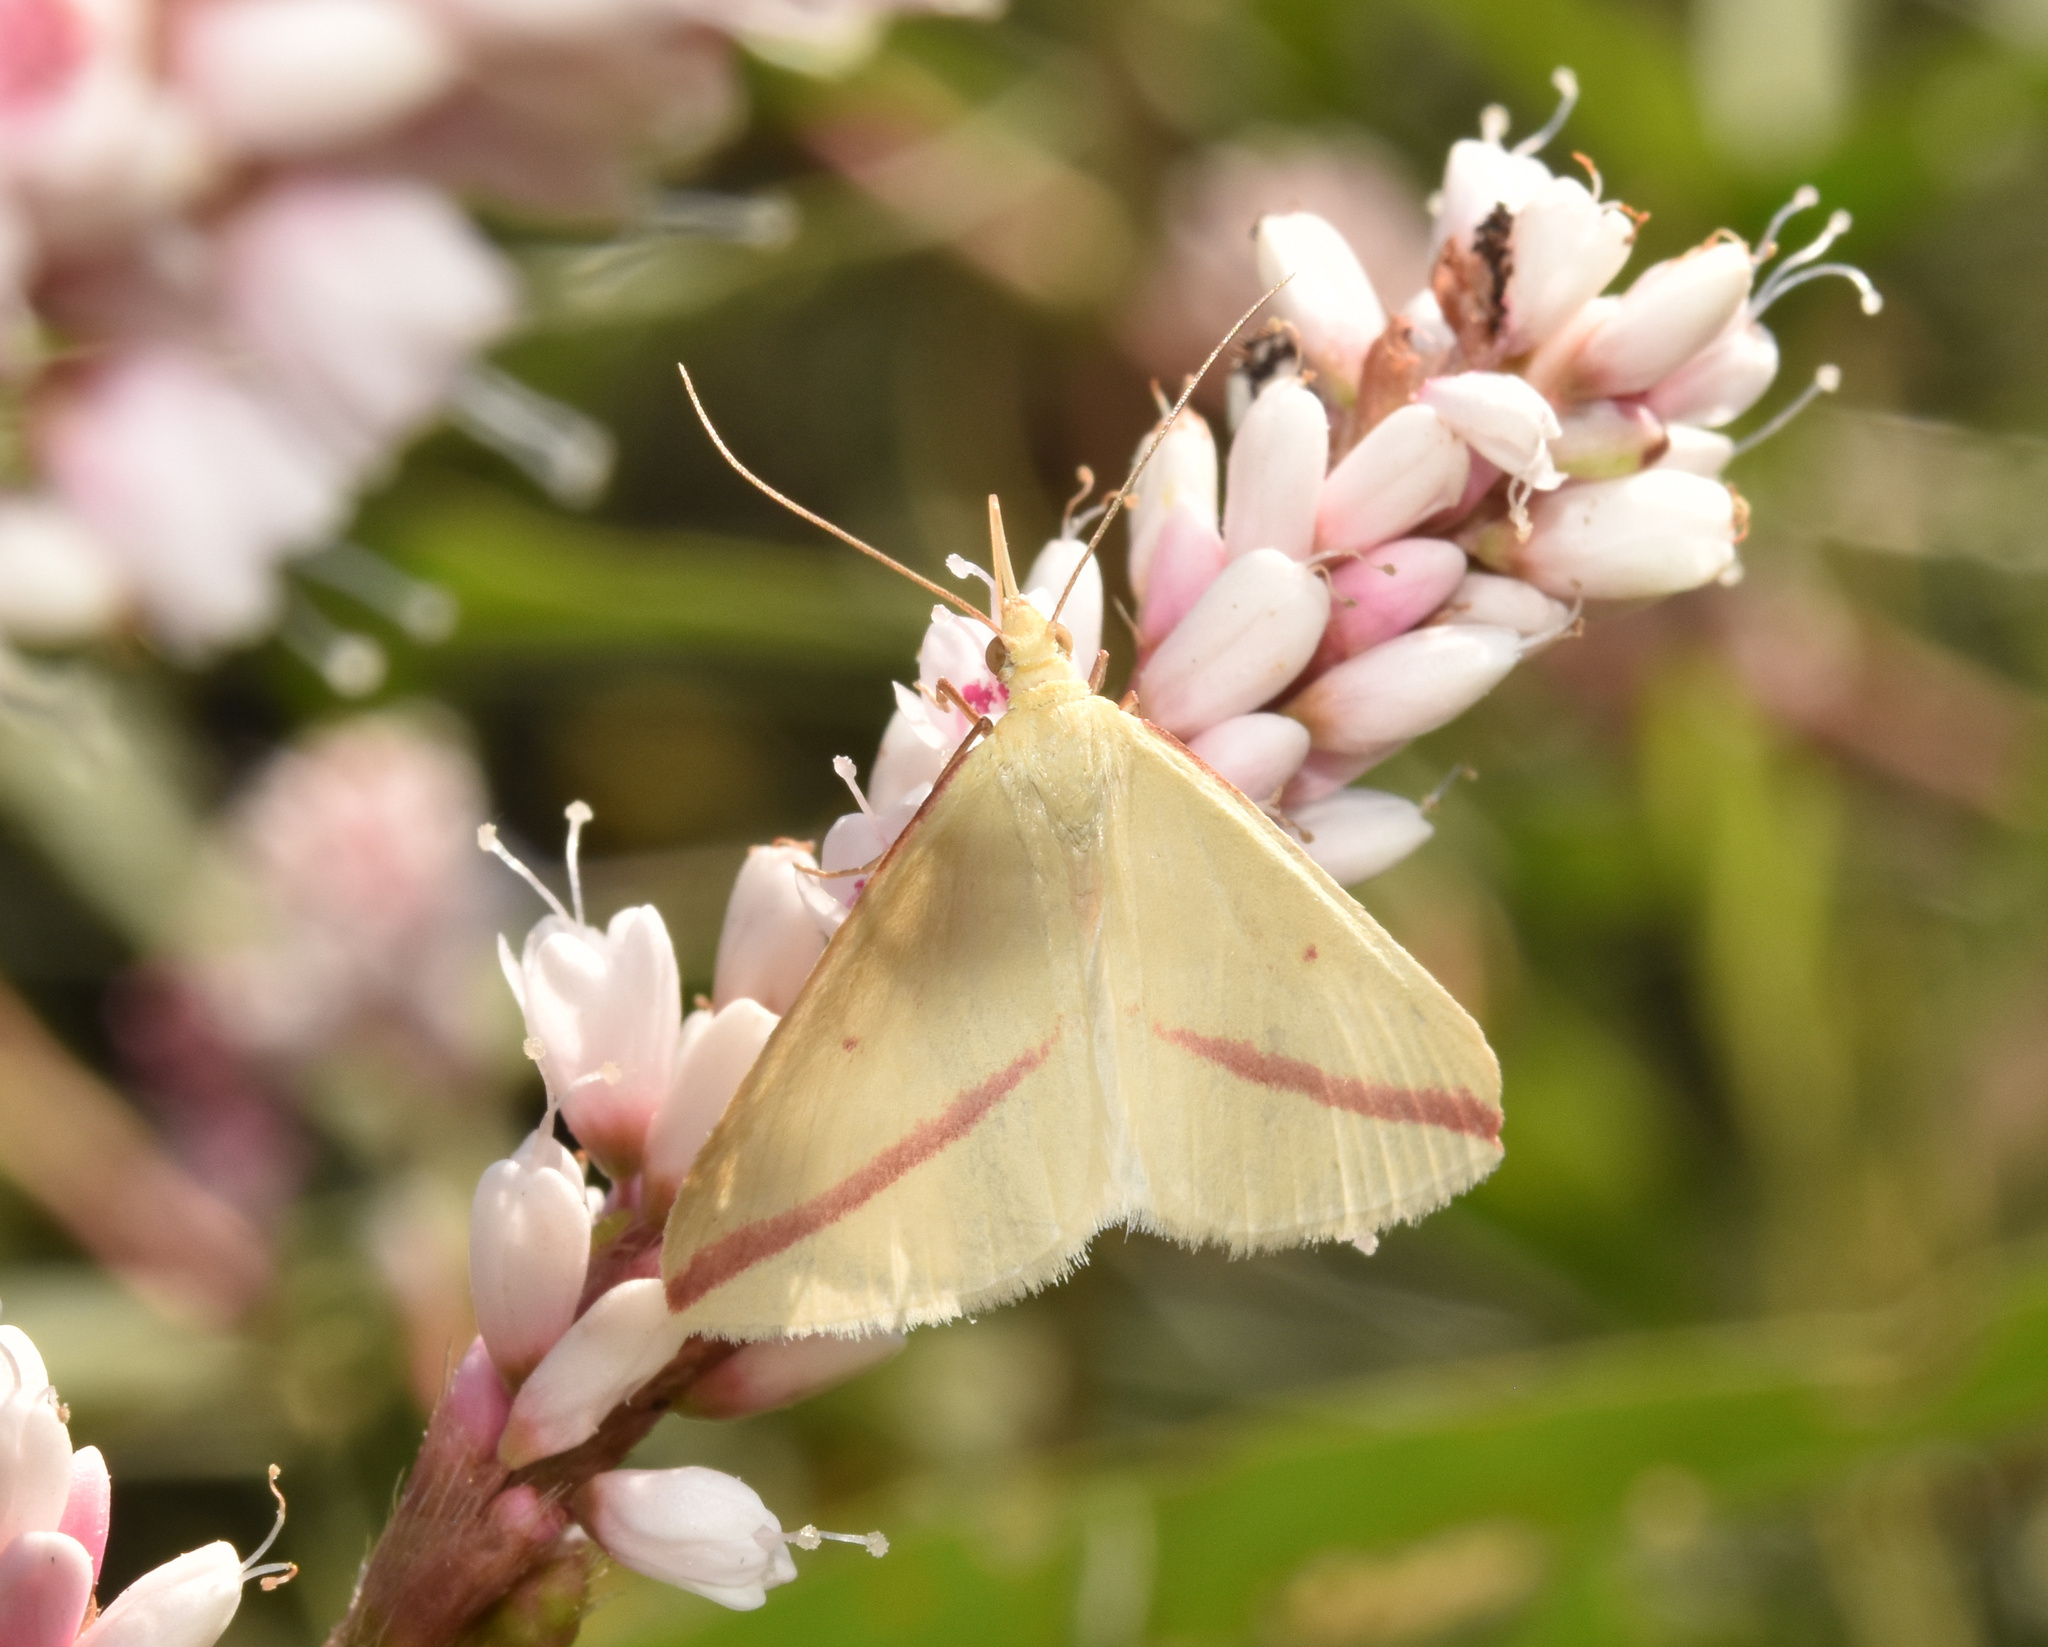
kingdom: Animalia
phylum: Arthropoda
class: Insecta
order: Lepidoptera
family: Geometridae
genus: Rhodometra
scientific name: Rhodometra sacraria
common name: Vestal
